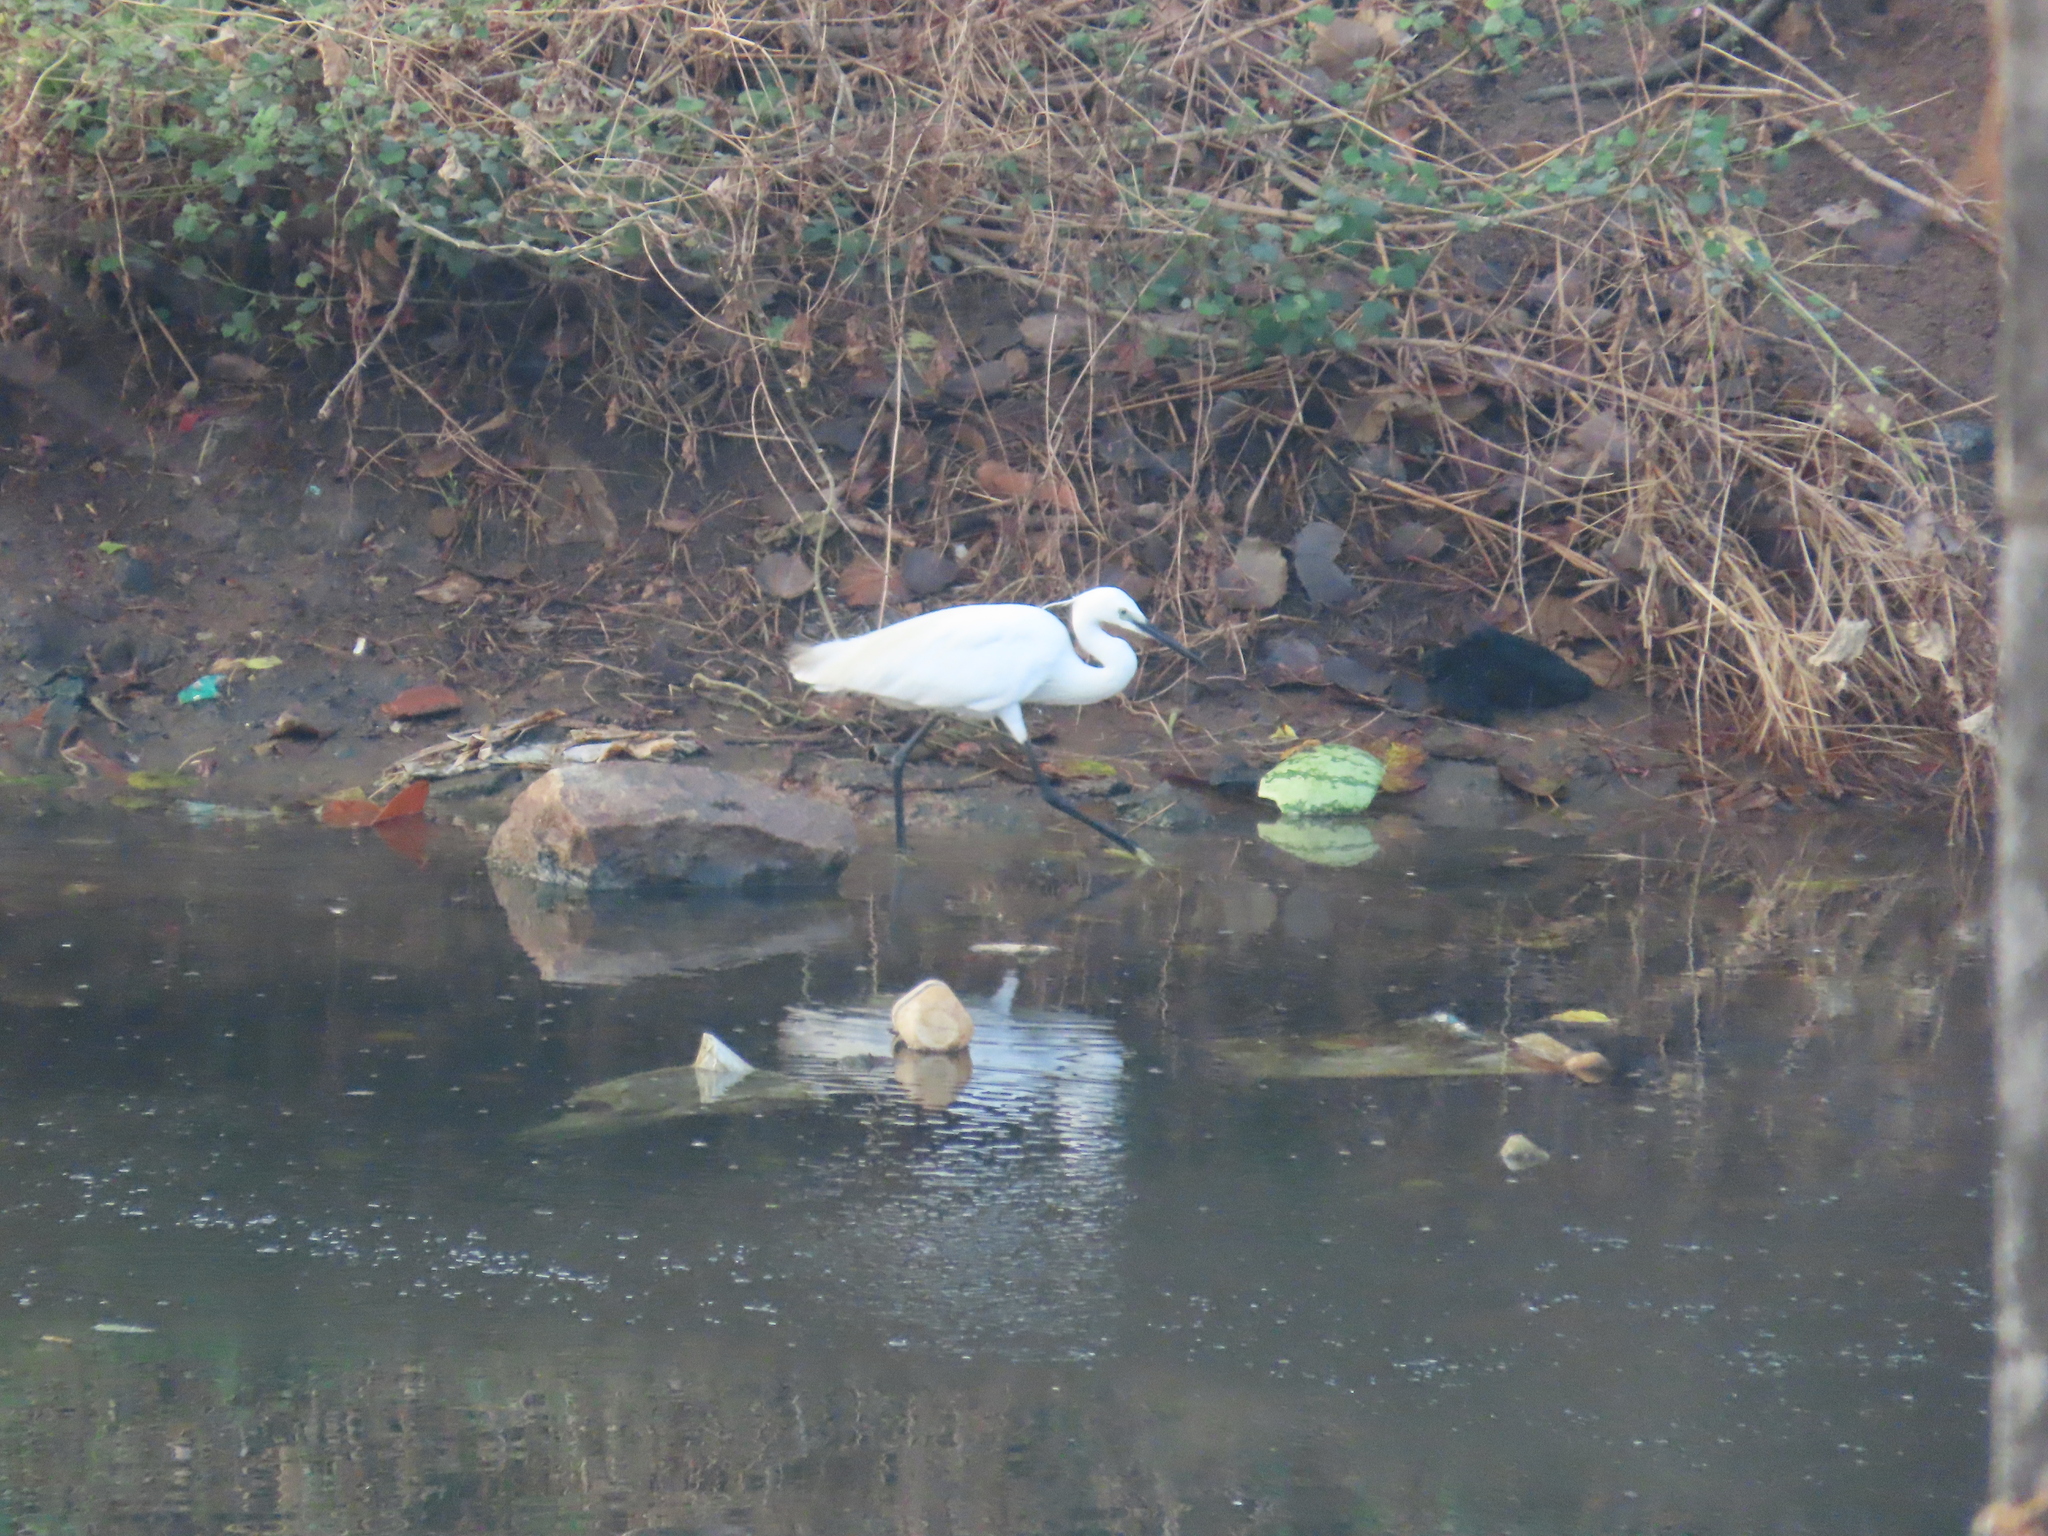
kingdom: Animalia
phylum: Chordata
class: Aves
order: Pelecaniformes
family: Ardeidae
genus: Egretta
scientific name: Egretta garzetta
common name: Little egret
